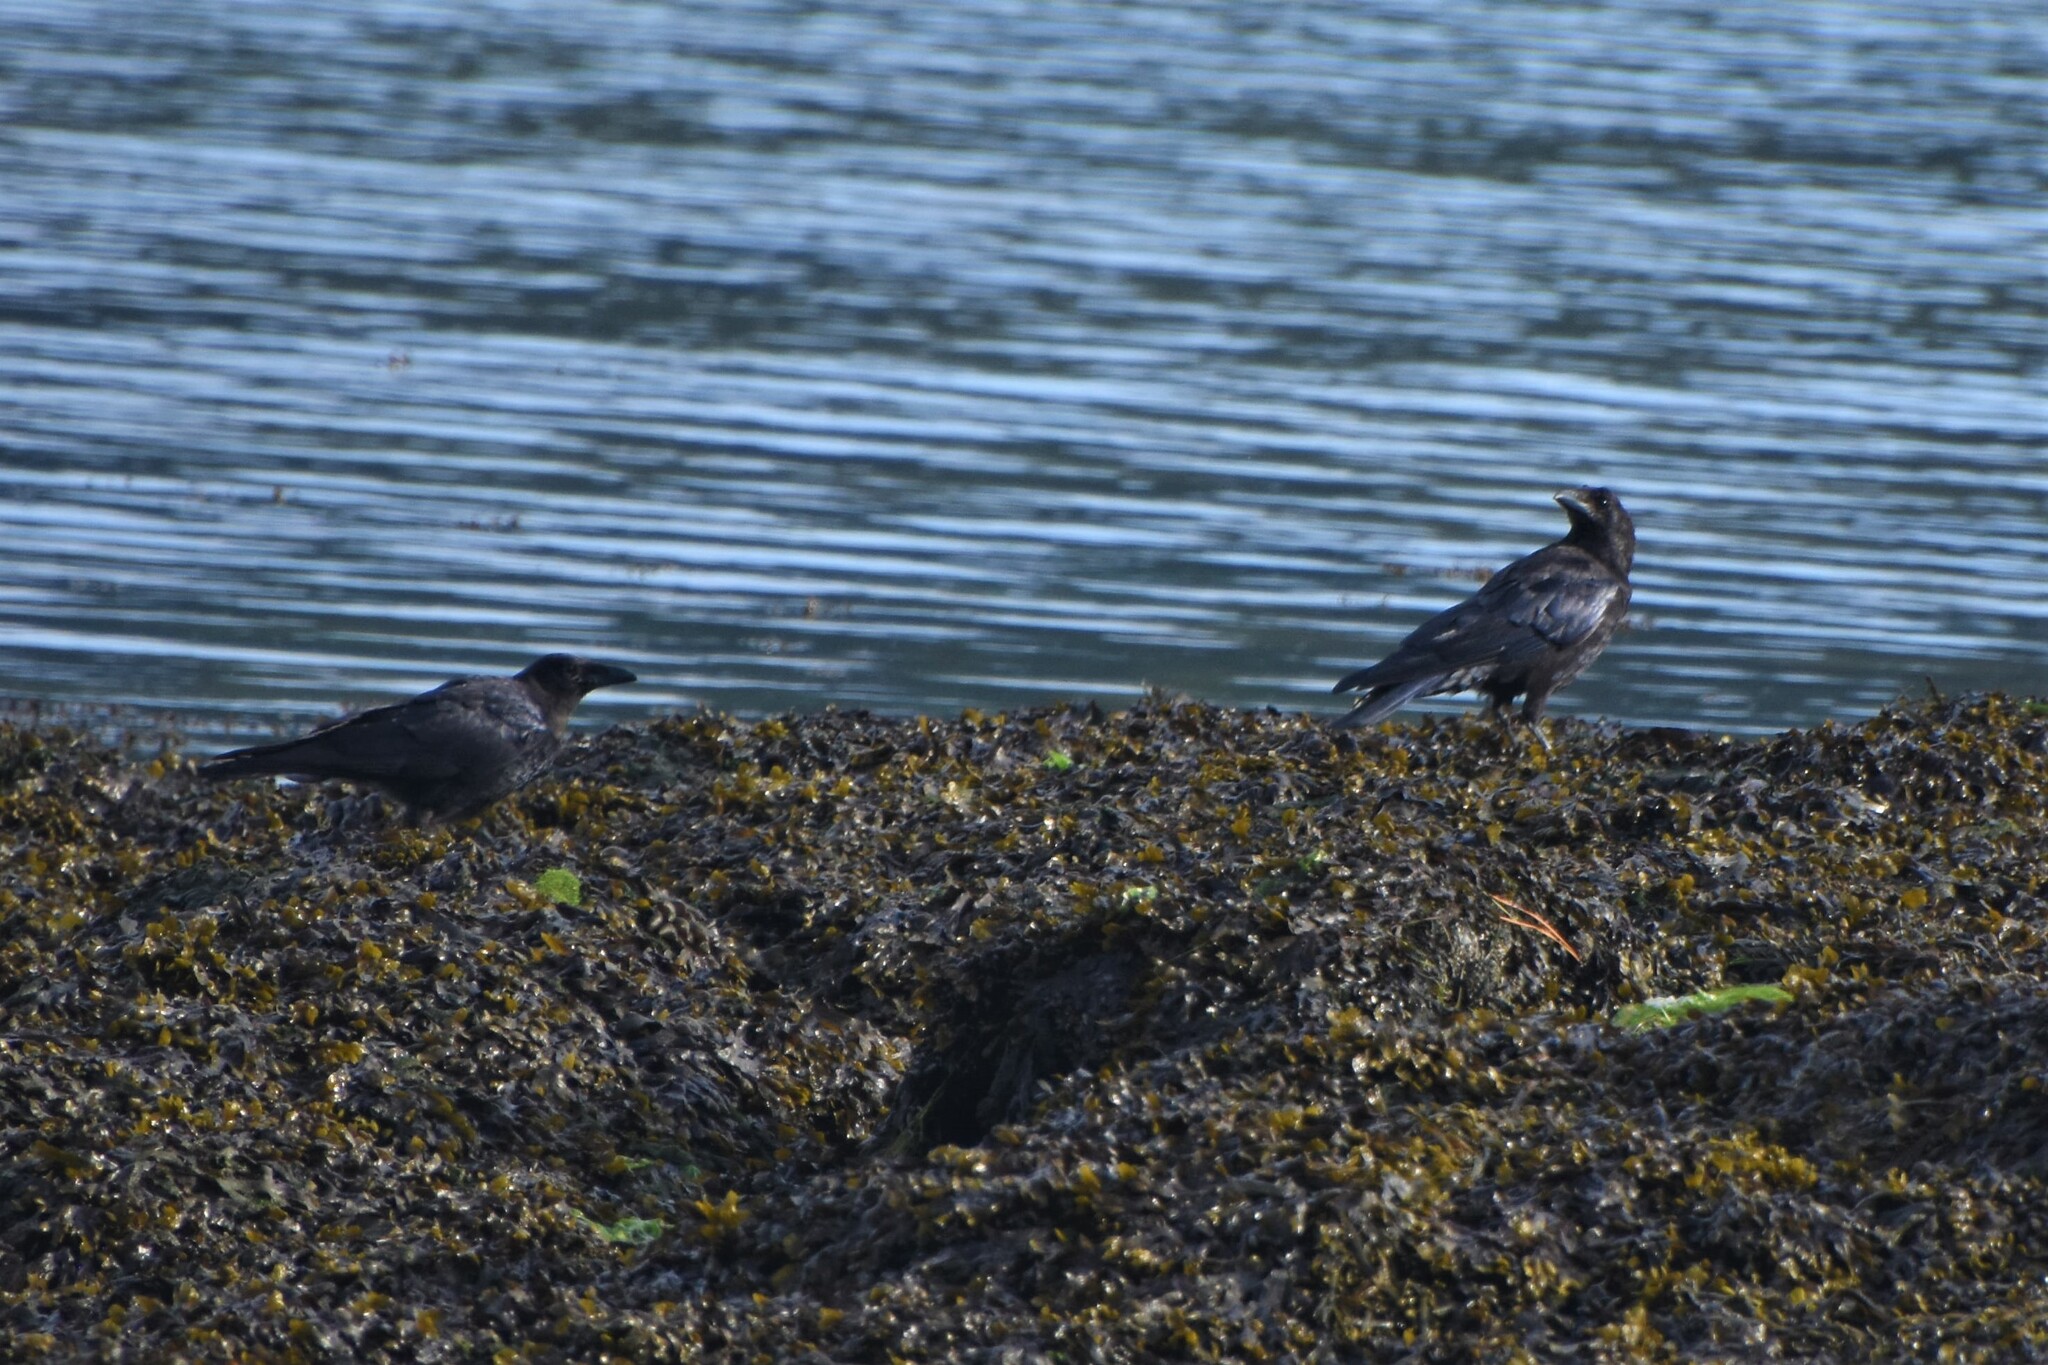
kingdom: Animalia
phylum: Chordata
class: Aves
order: Passeriformes
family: Corvidae
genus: Corvus
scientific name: Corvus corone
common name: Carrion crow
